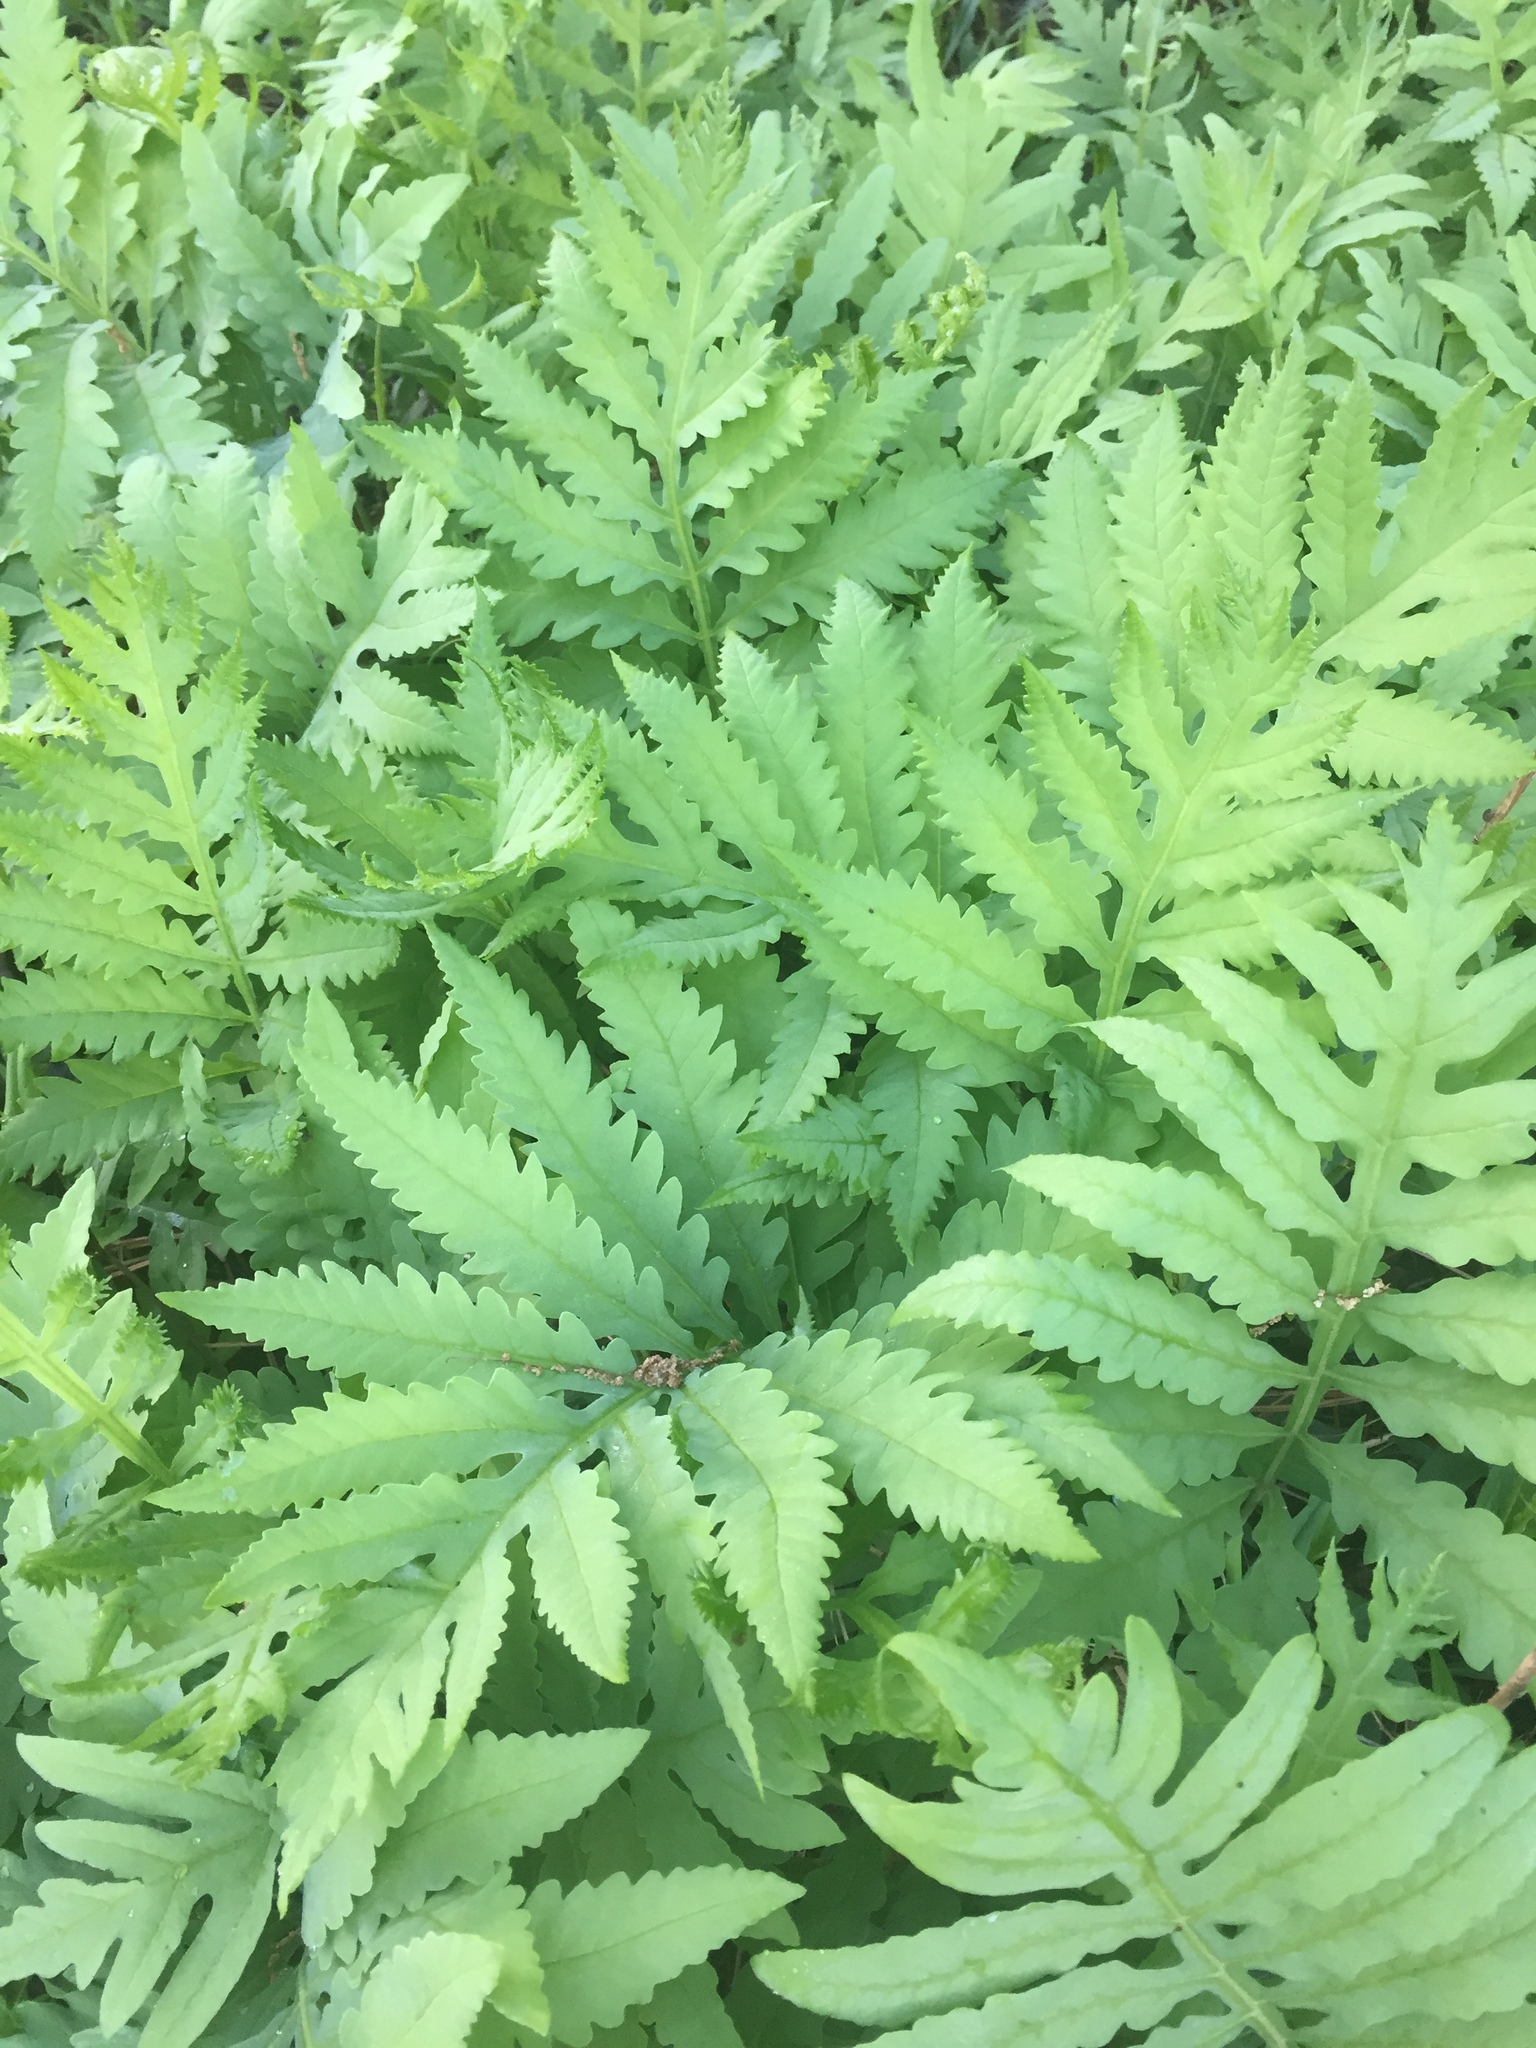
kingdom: Plantae
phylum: Tracheophyta
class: Polypodiopsida
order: Polypodiales
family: Onocleaceae
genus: Onoclea
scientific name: Onoclea sensibilis
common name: Sensitive fern
